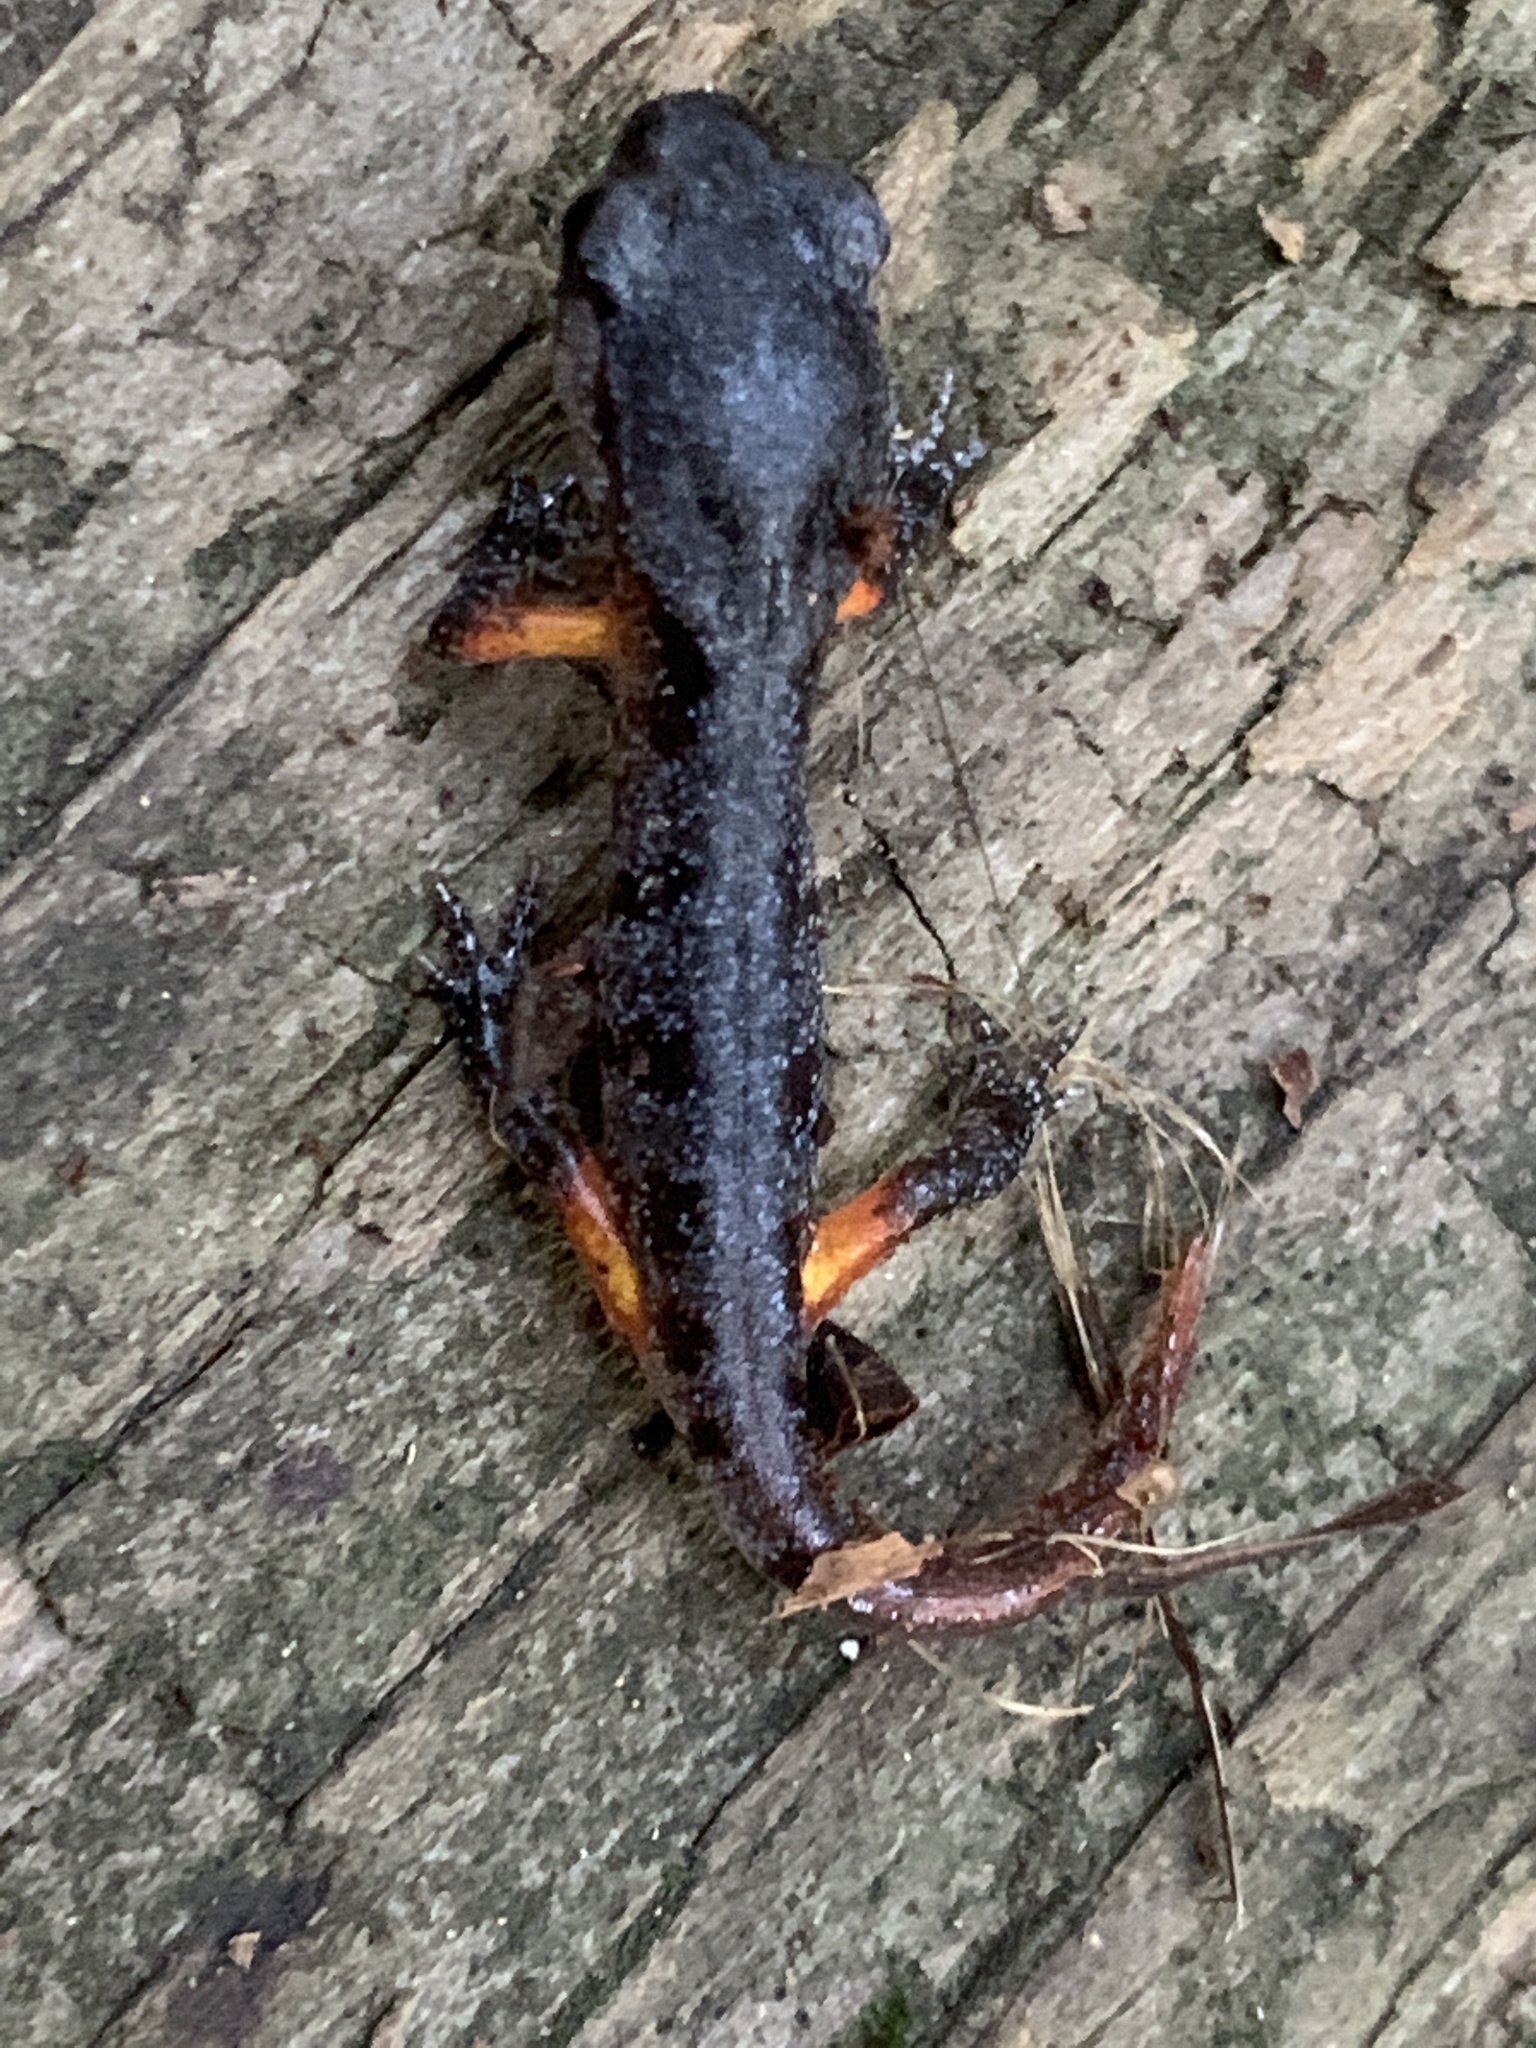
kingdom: Animalia
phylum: Chordata
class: Amphibia
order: Caudata
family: Plethodontidae
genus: Ensatina
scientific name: Ensatina eschscholtzii
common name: Ensatina
